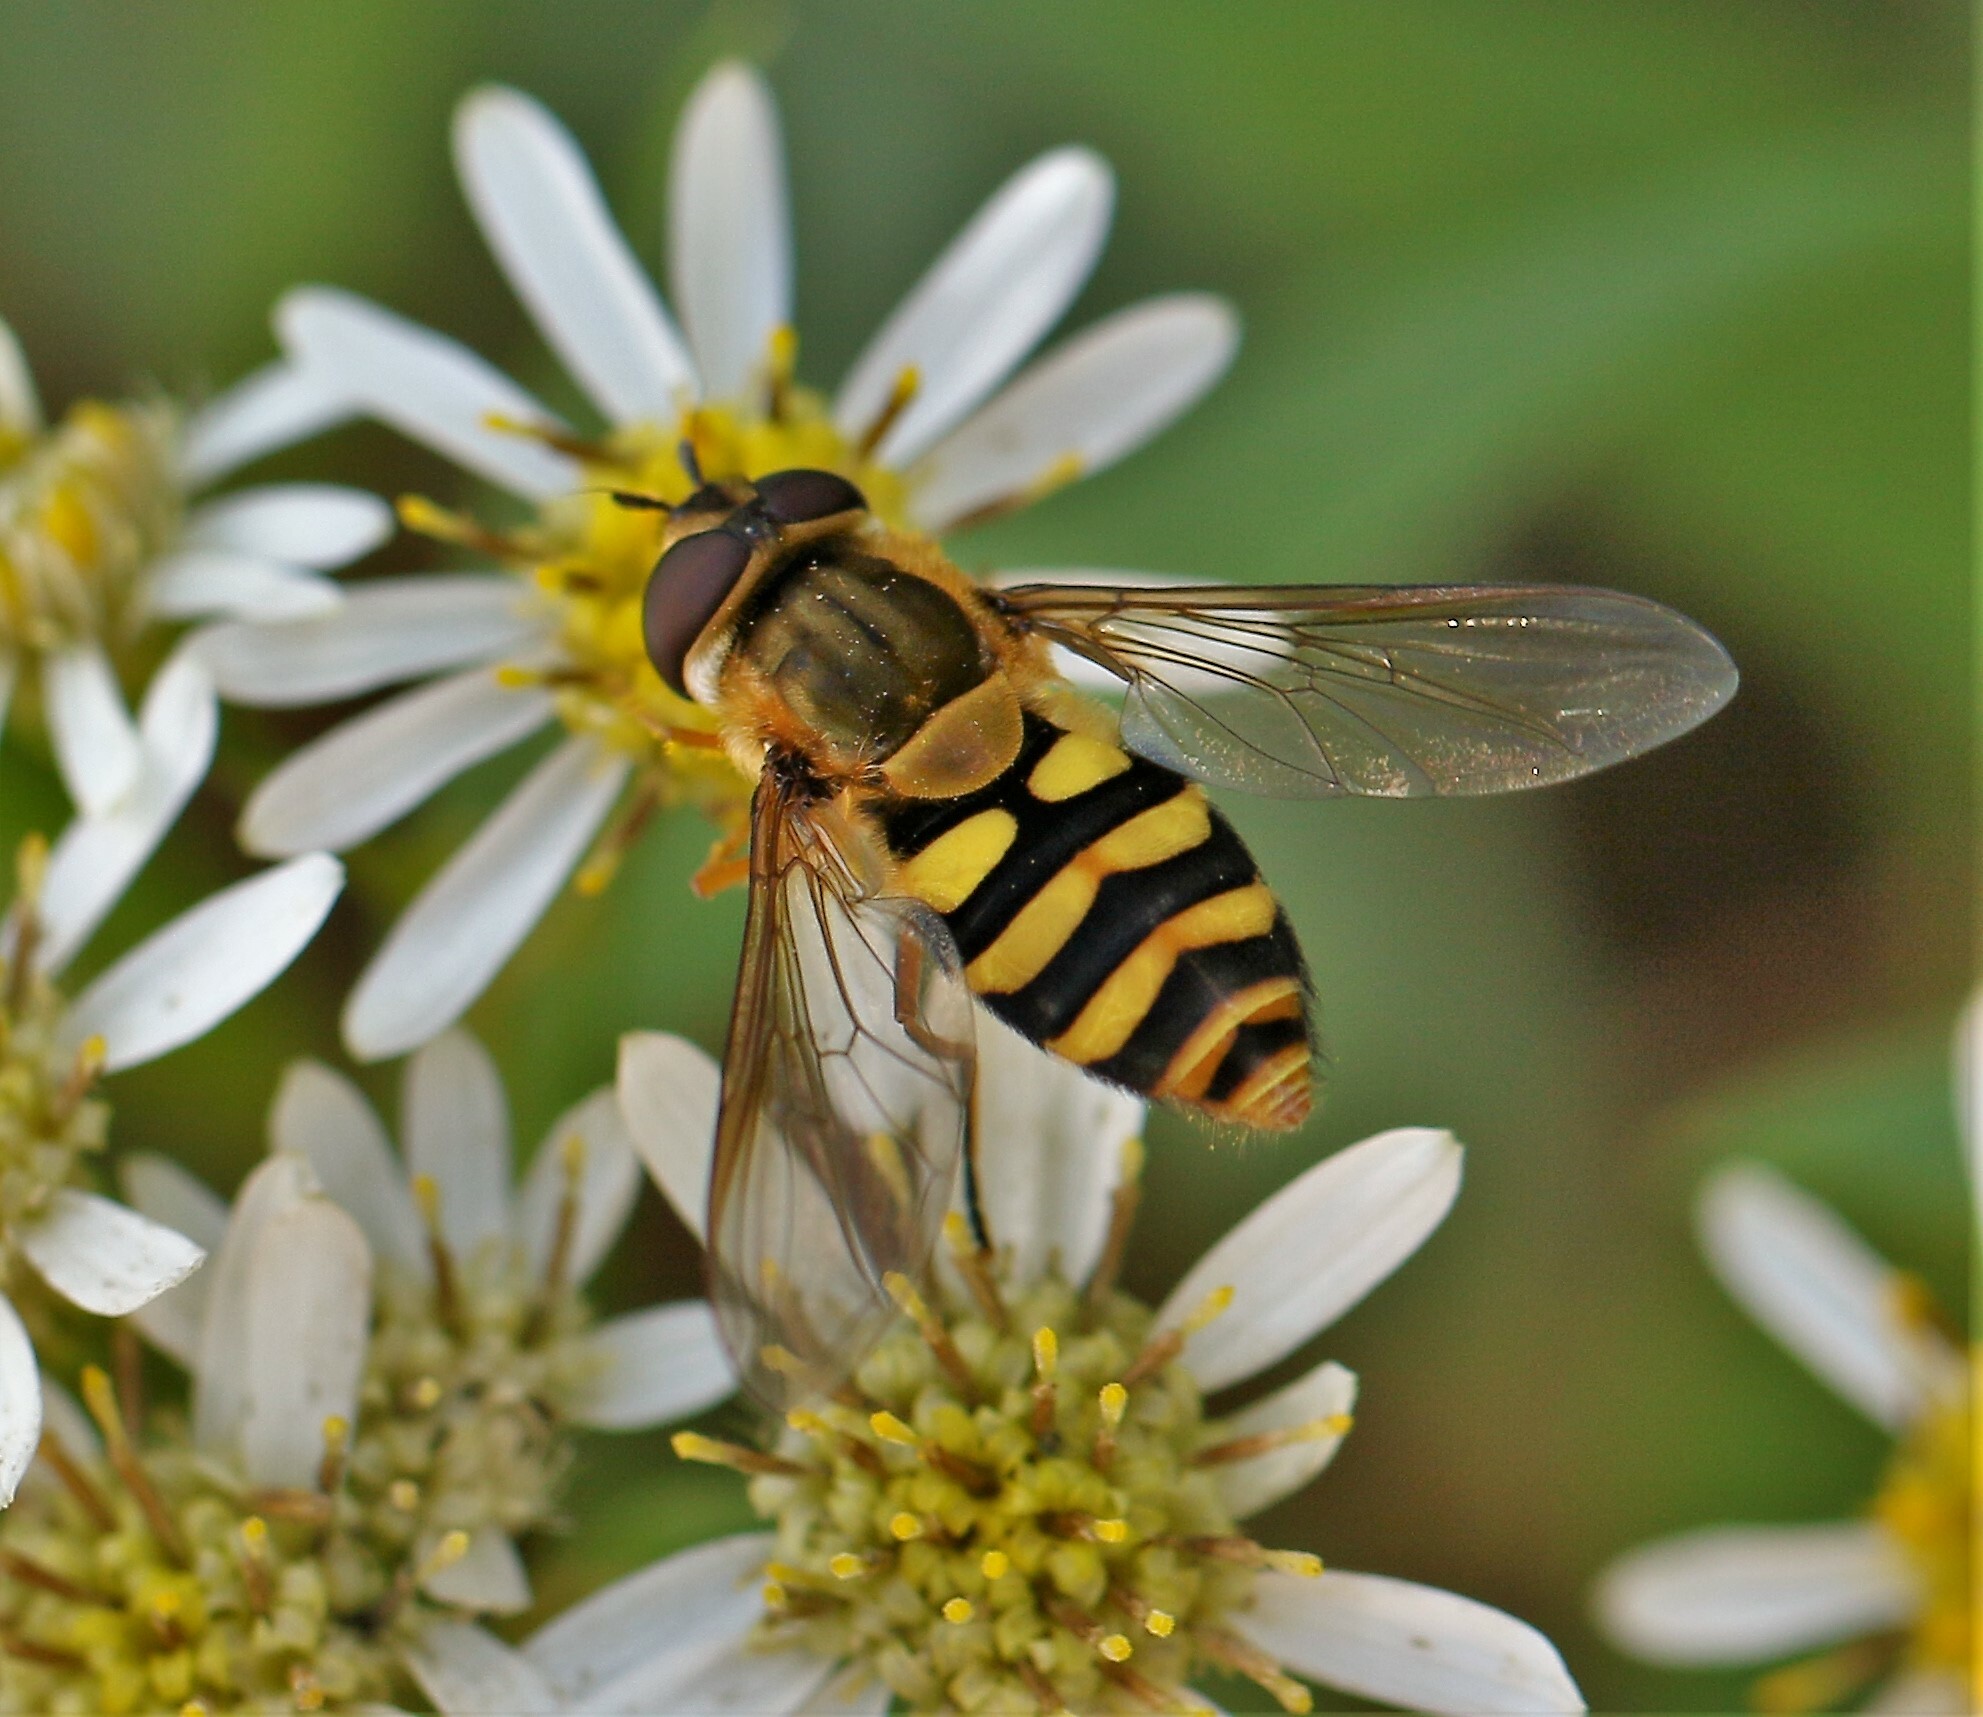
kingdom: Animalia
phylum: Arthropoda
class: Insecta
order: Diptera
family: Syrphidae
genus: Syrphus
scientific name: Syrphus ribesii
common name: Common flower fly
